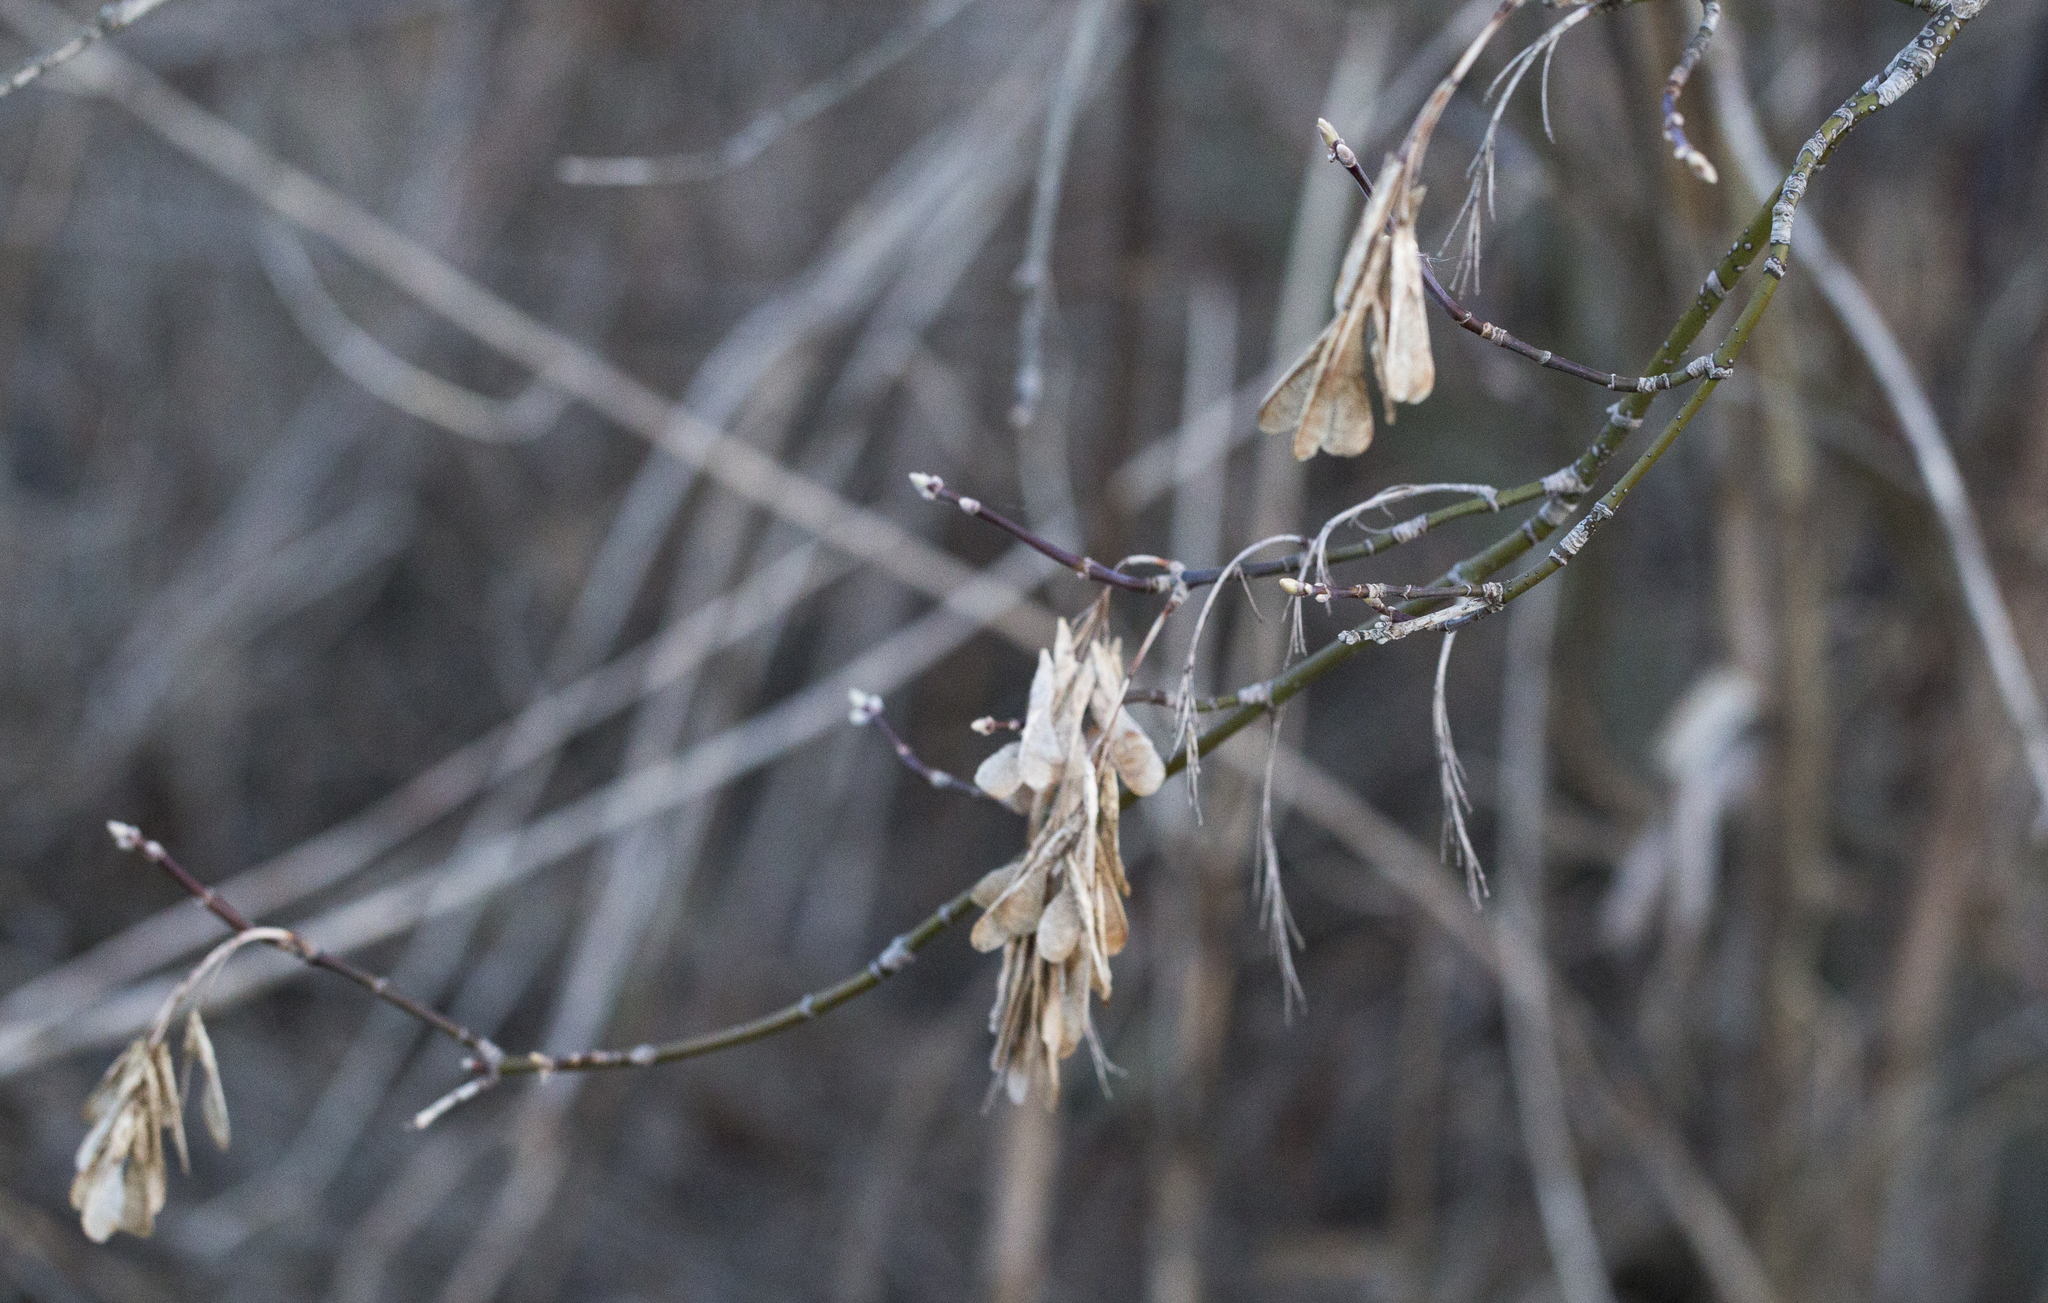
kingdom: Plantae
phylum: Tracheophyta
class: Magnoliopsida
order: Sapindales
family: Sapindaceae
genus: Acer
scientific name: Acer negundo
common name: Ashleaf maple
